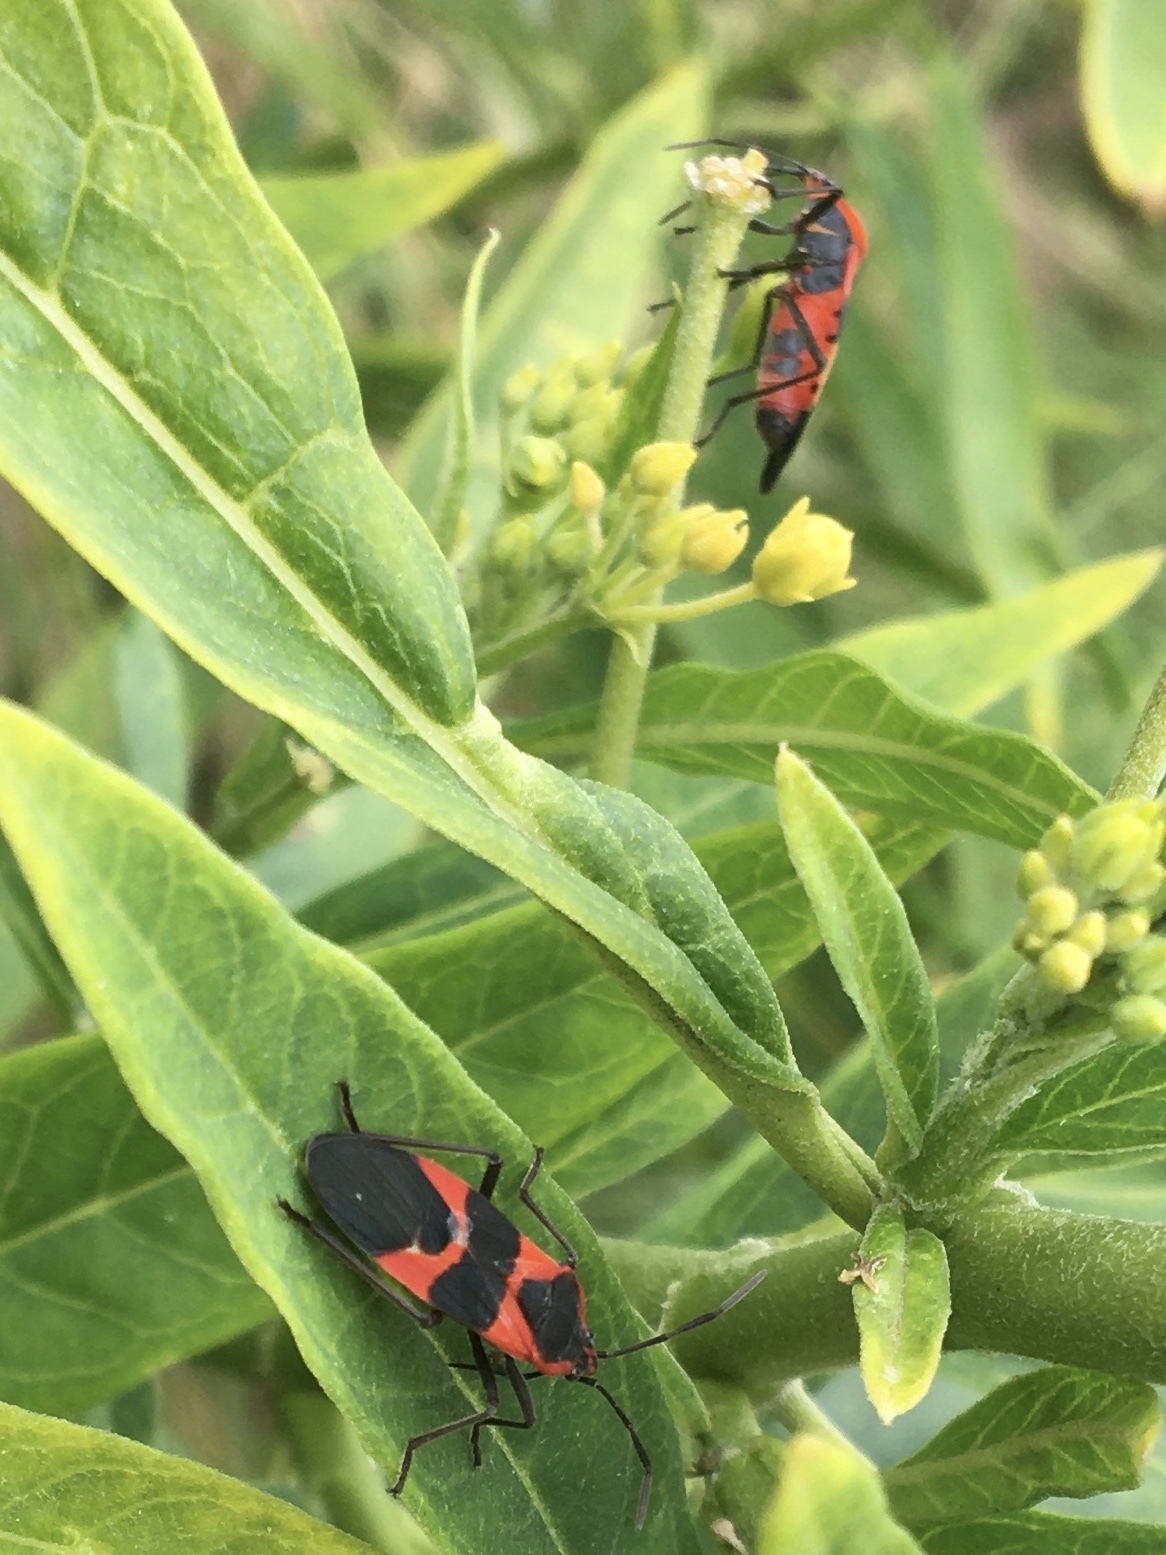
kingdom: Animalia
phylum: Arthropoda
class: Insecta
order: Hemiptera
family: Lygaeidae
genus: Oncopeltus
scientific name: Oncopeltus fasciatus
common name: Large milkweed bug
